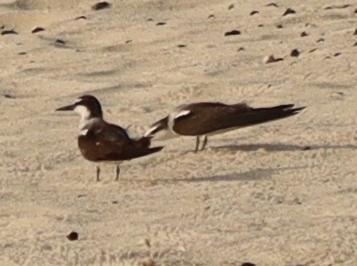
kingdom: Animalia
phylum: Chordata
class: Aves
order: Charadriiformes
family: Laridae
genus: Onychoprion
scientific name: Onychoprion anaethetus
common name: Bridled tern
